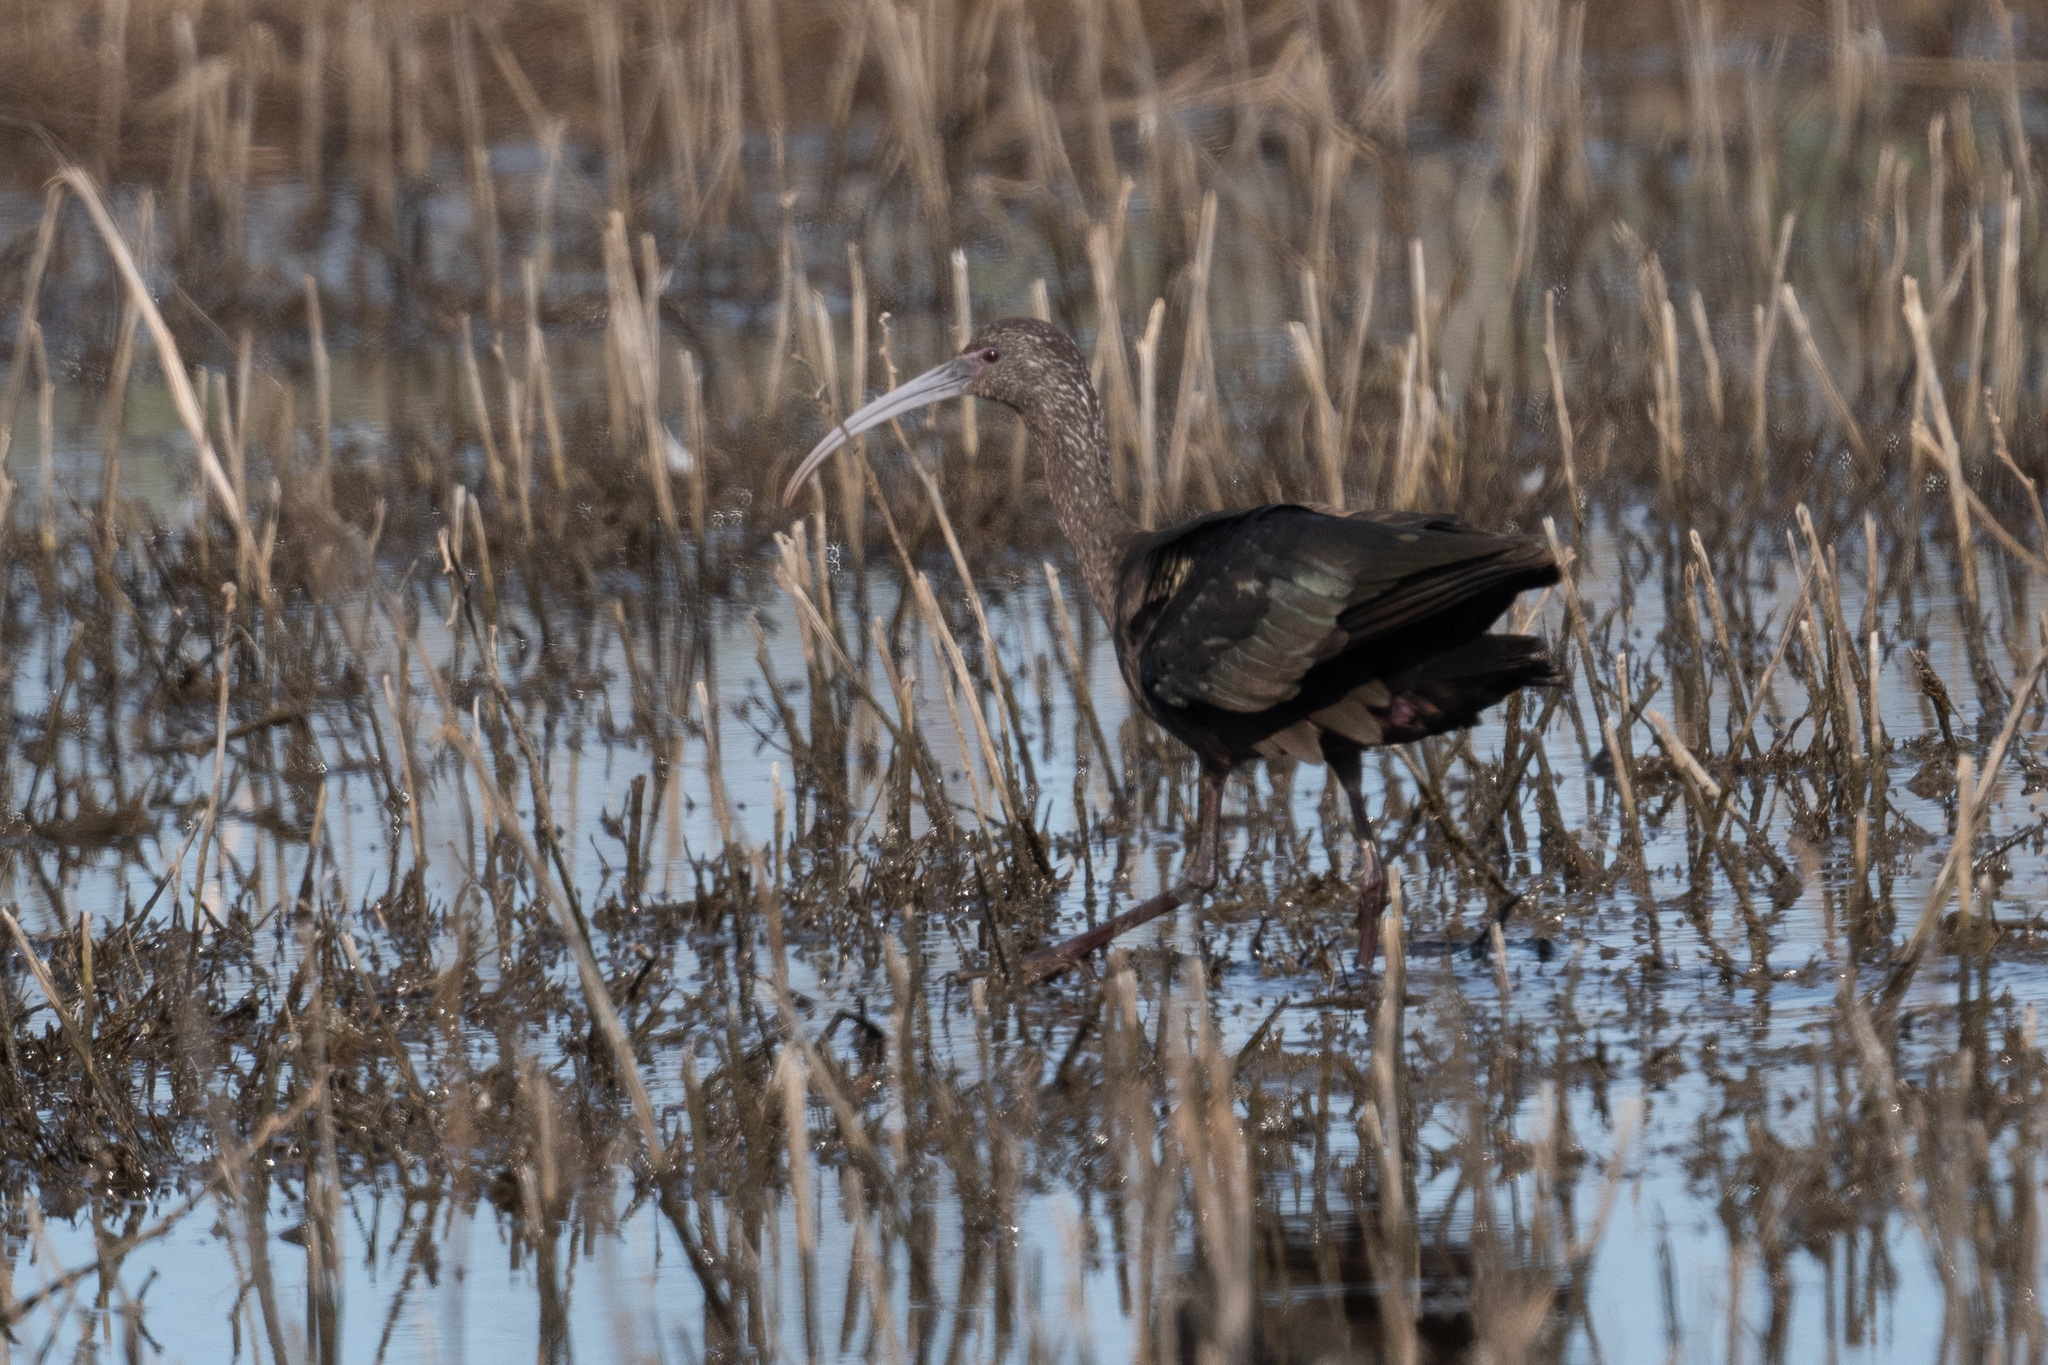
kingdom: Animalia
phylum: Chordata
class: Aves
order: Pelecaniformes
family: Threskiornithidae
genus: Plegadis
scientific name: Plegadis chihi
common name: White-faced ibis
